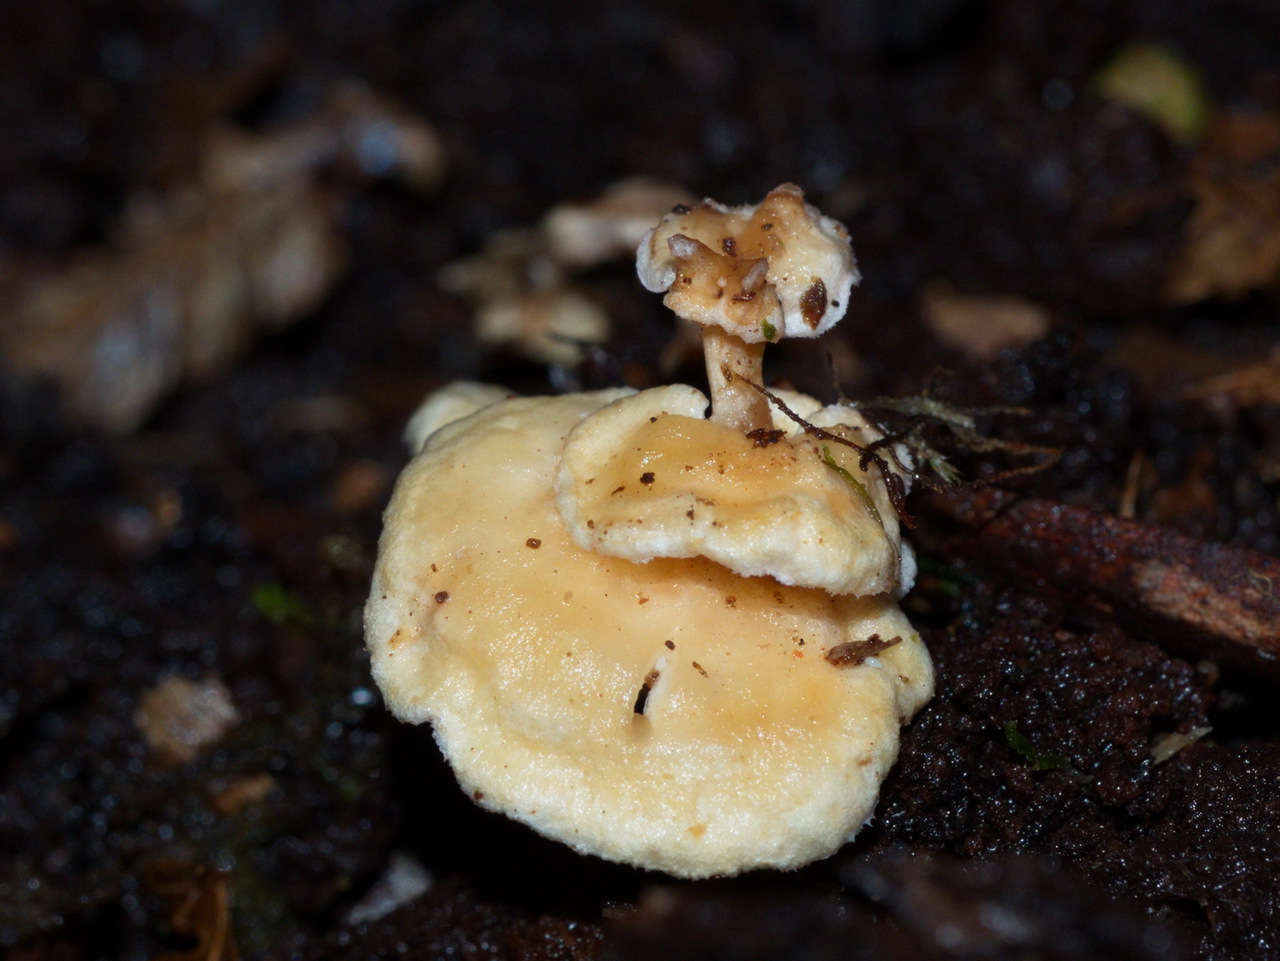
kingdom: Fungi
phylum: Basidiomycota
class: Agaricomycetes
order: Amylocorticiales
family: Amylocorticiaceae
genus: Podoserpula
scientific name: Podoserpula pusio
